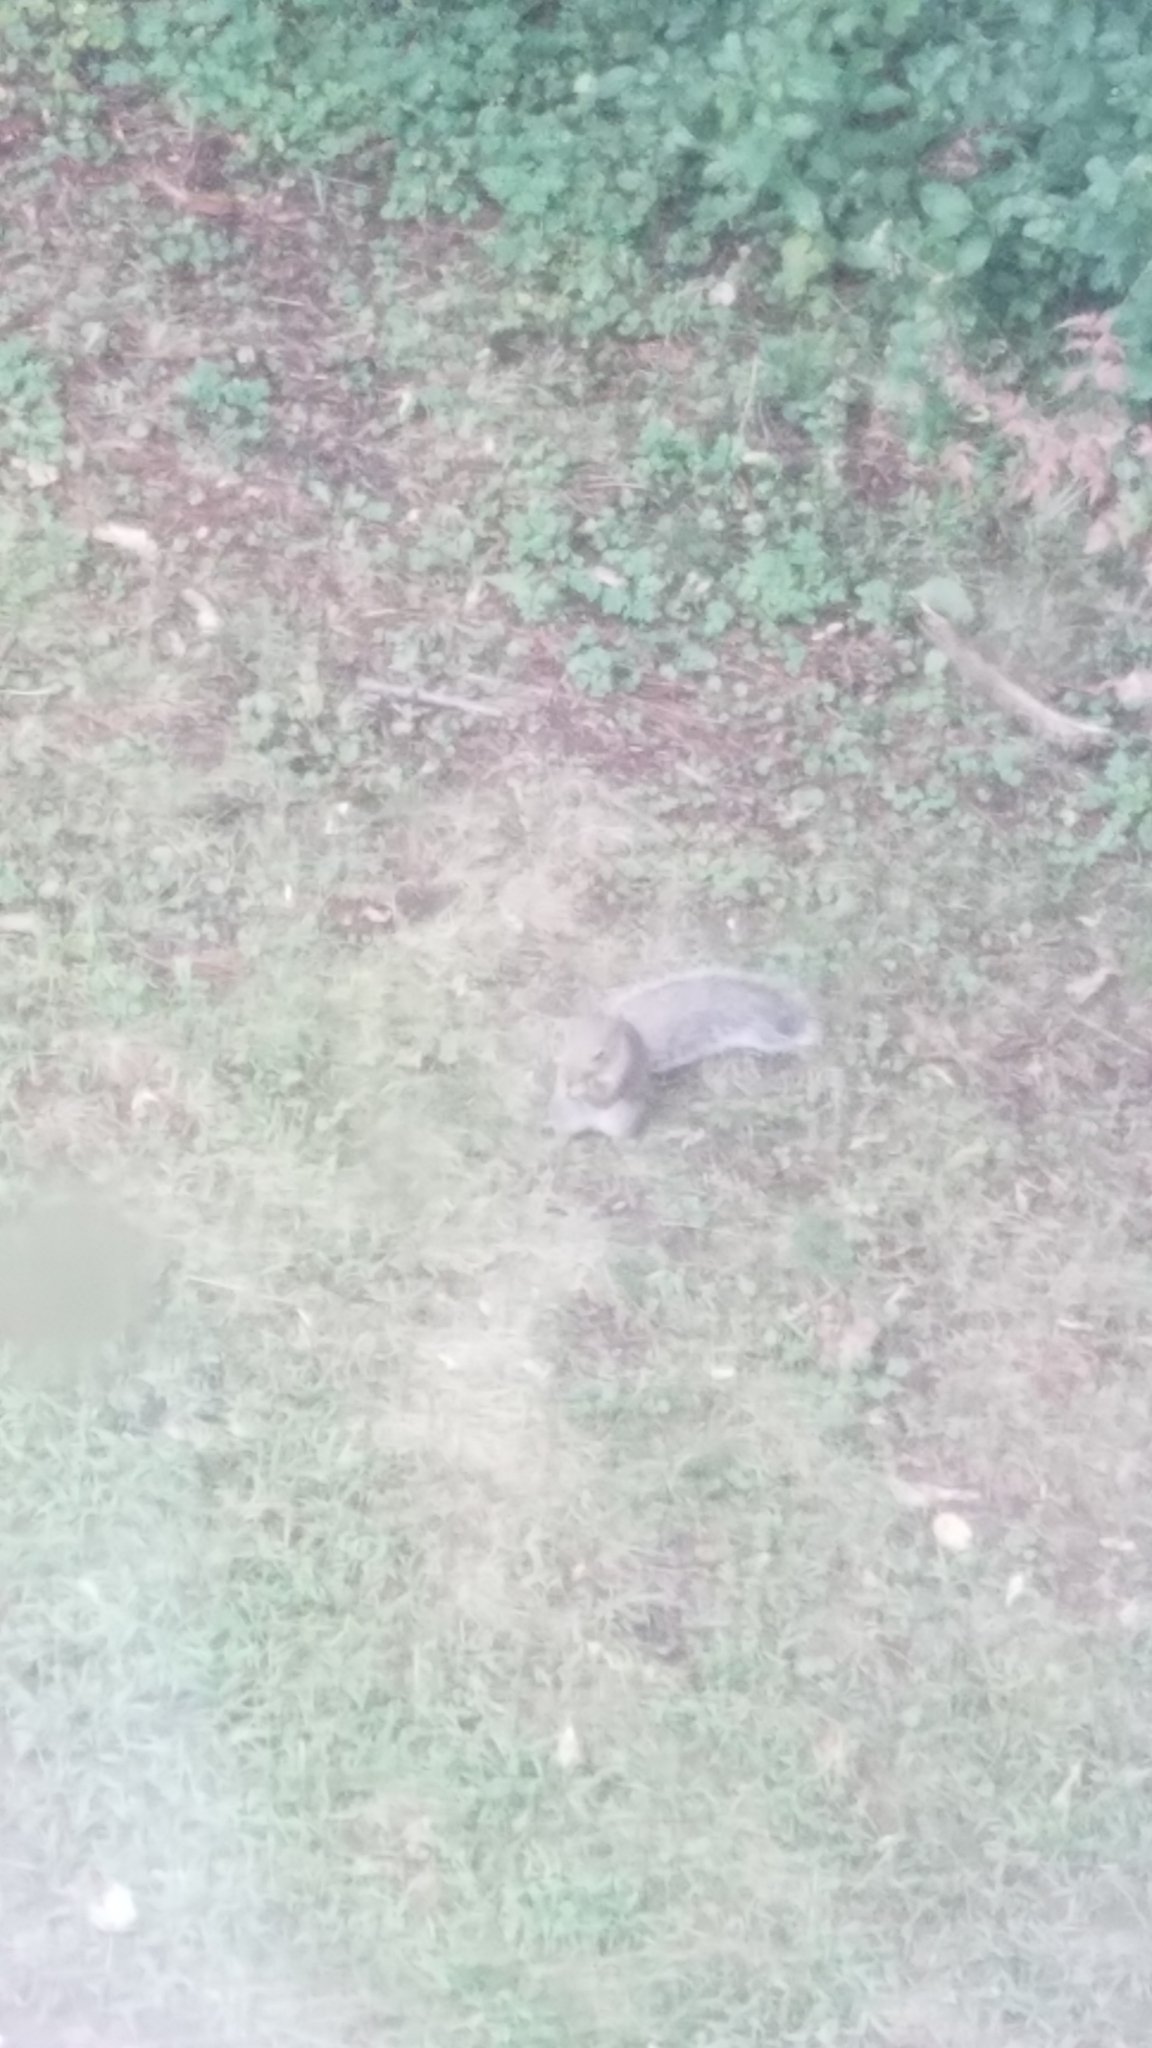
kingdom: Animalia
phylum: Chordata
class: Mammalia
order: Rodentia
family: Sciuridae
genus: Sciurus
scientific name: Sciurus carolinensis
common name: Eastern gray squirrel
